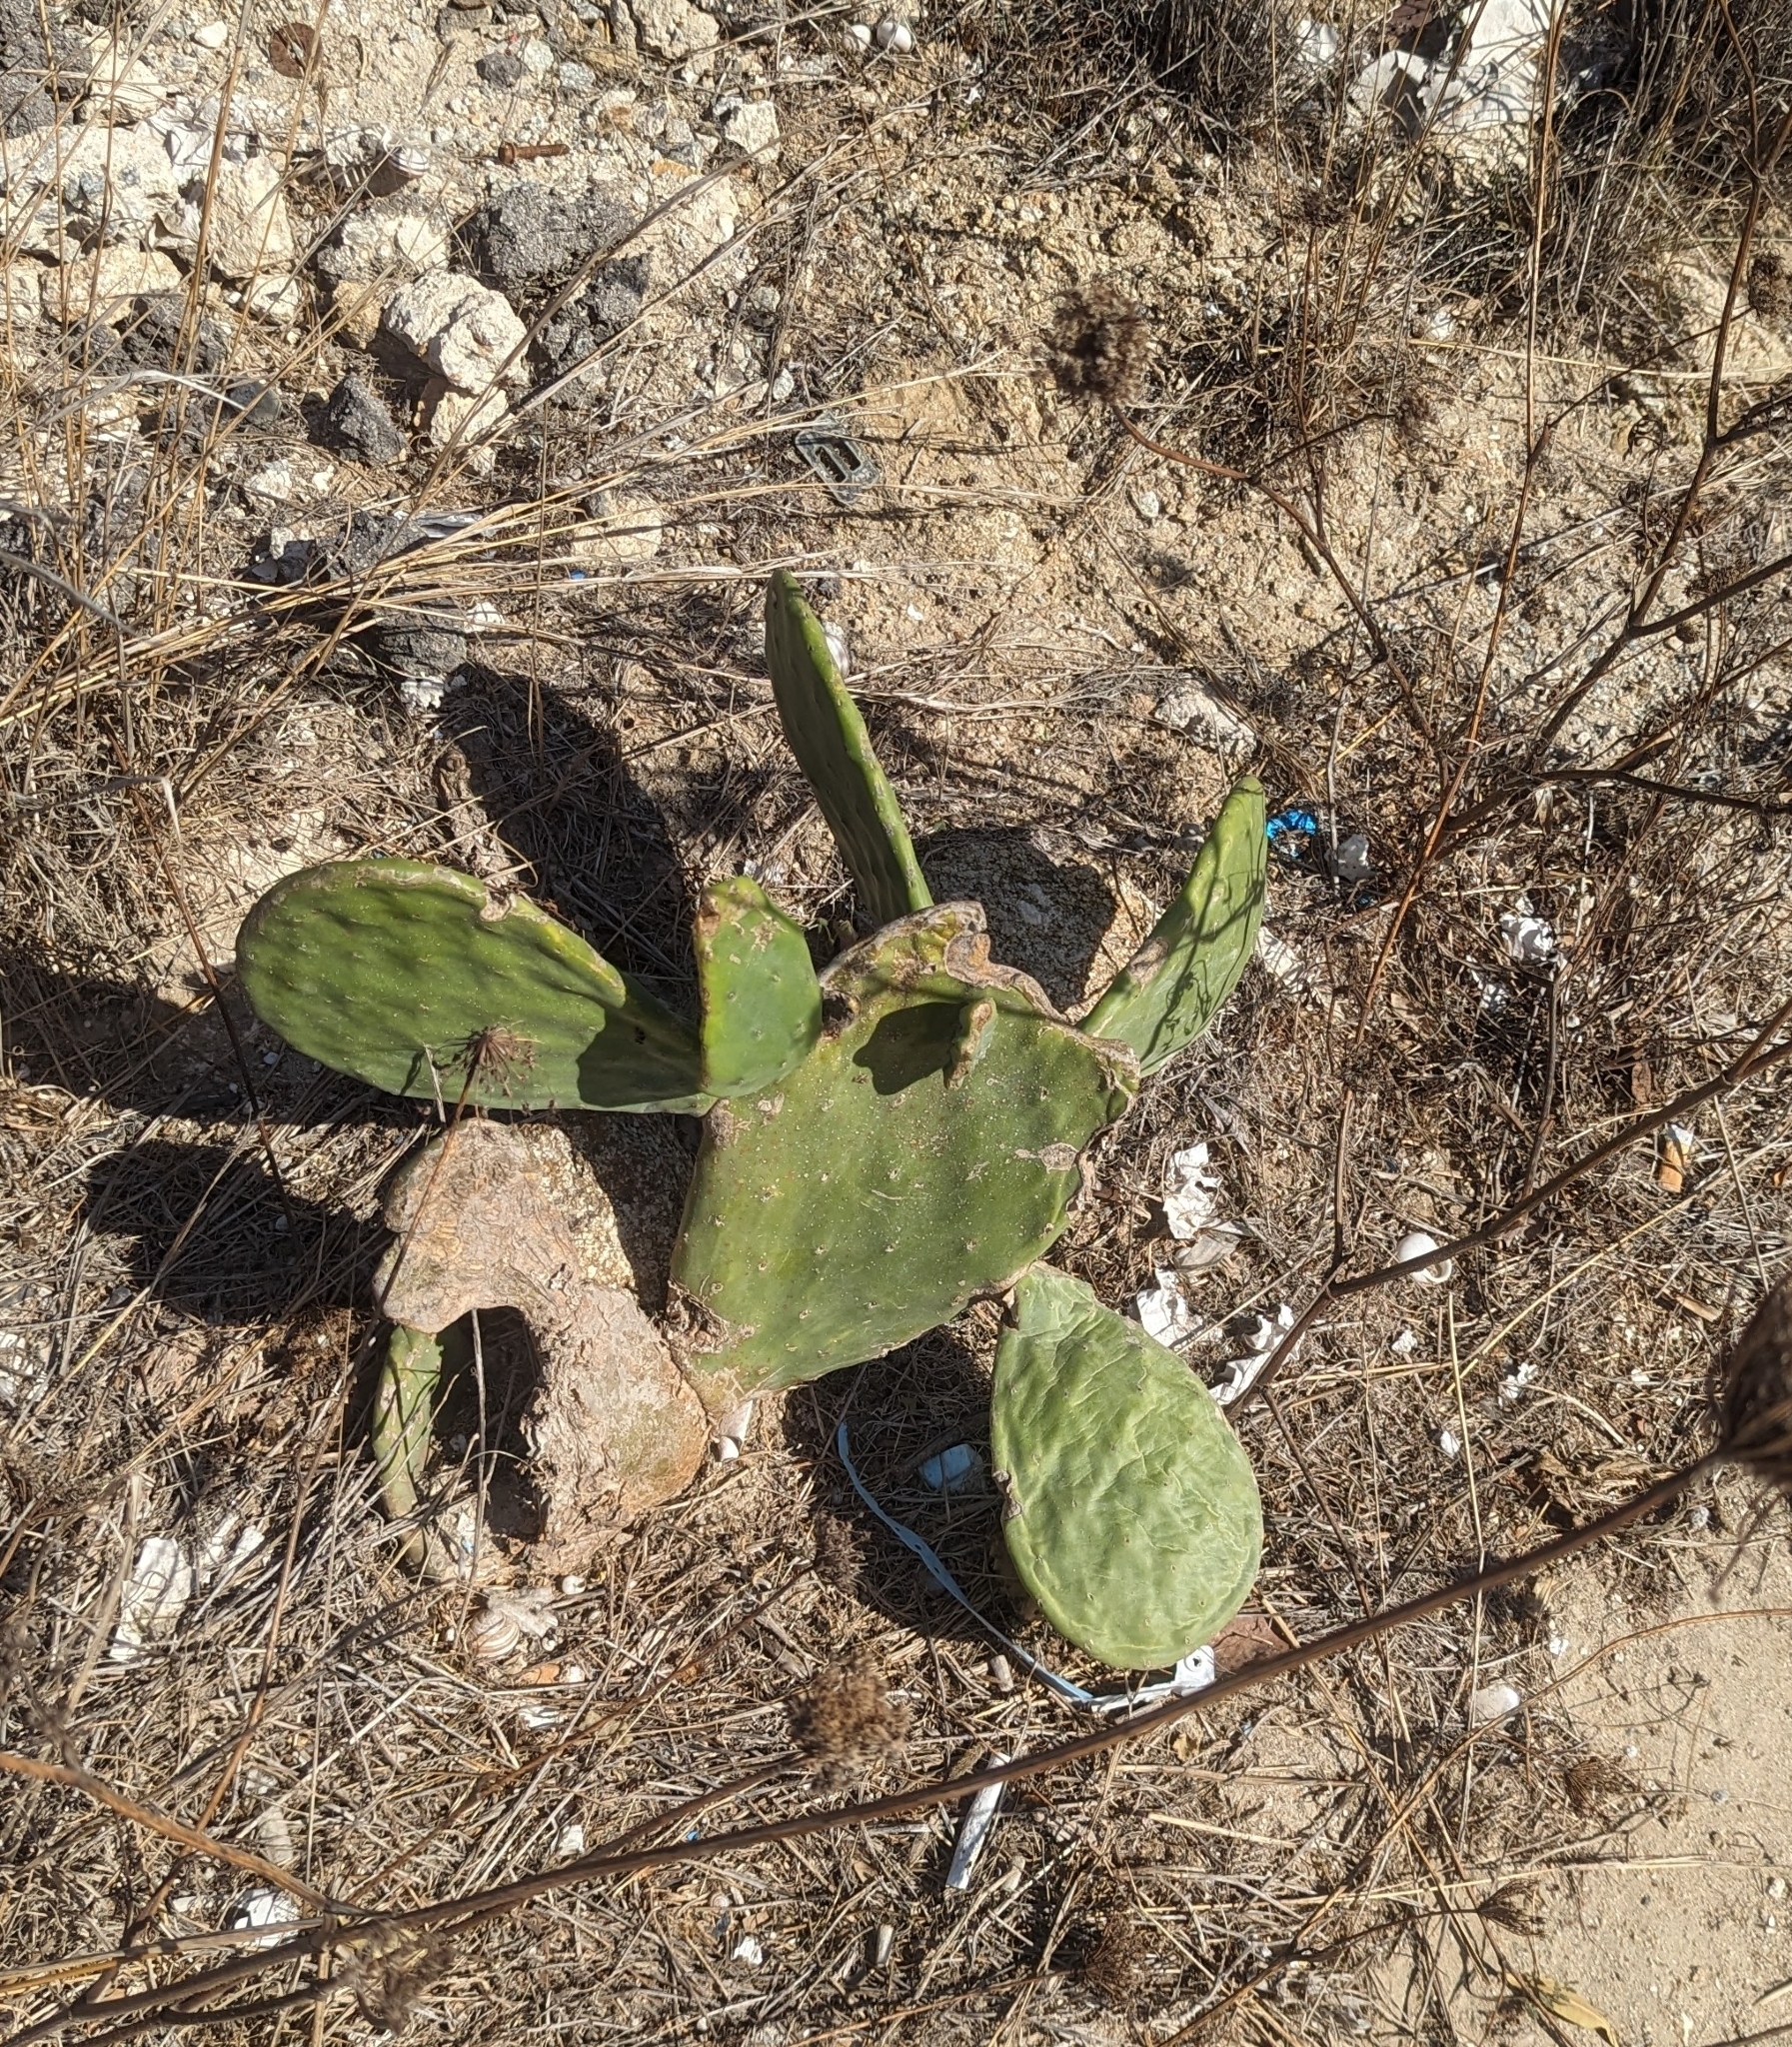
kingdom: Plantae
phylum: Tracheophyta
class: Magnoliopsida
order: Caryophyllales
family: Cactaceae
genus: Opuntia
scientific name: Opuntia ficus-indica
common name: Barbary fig
